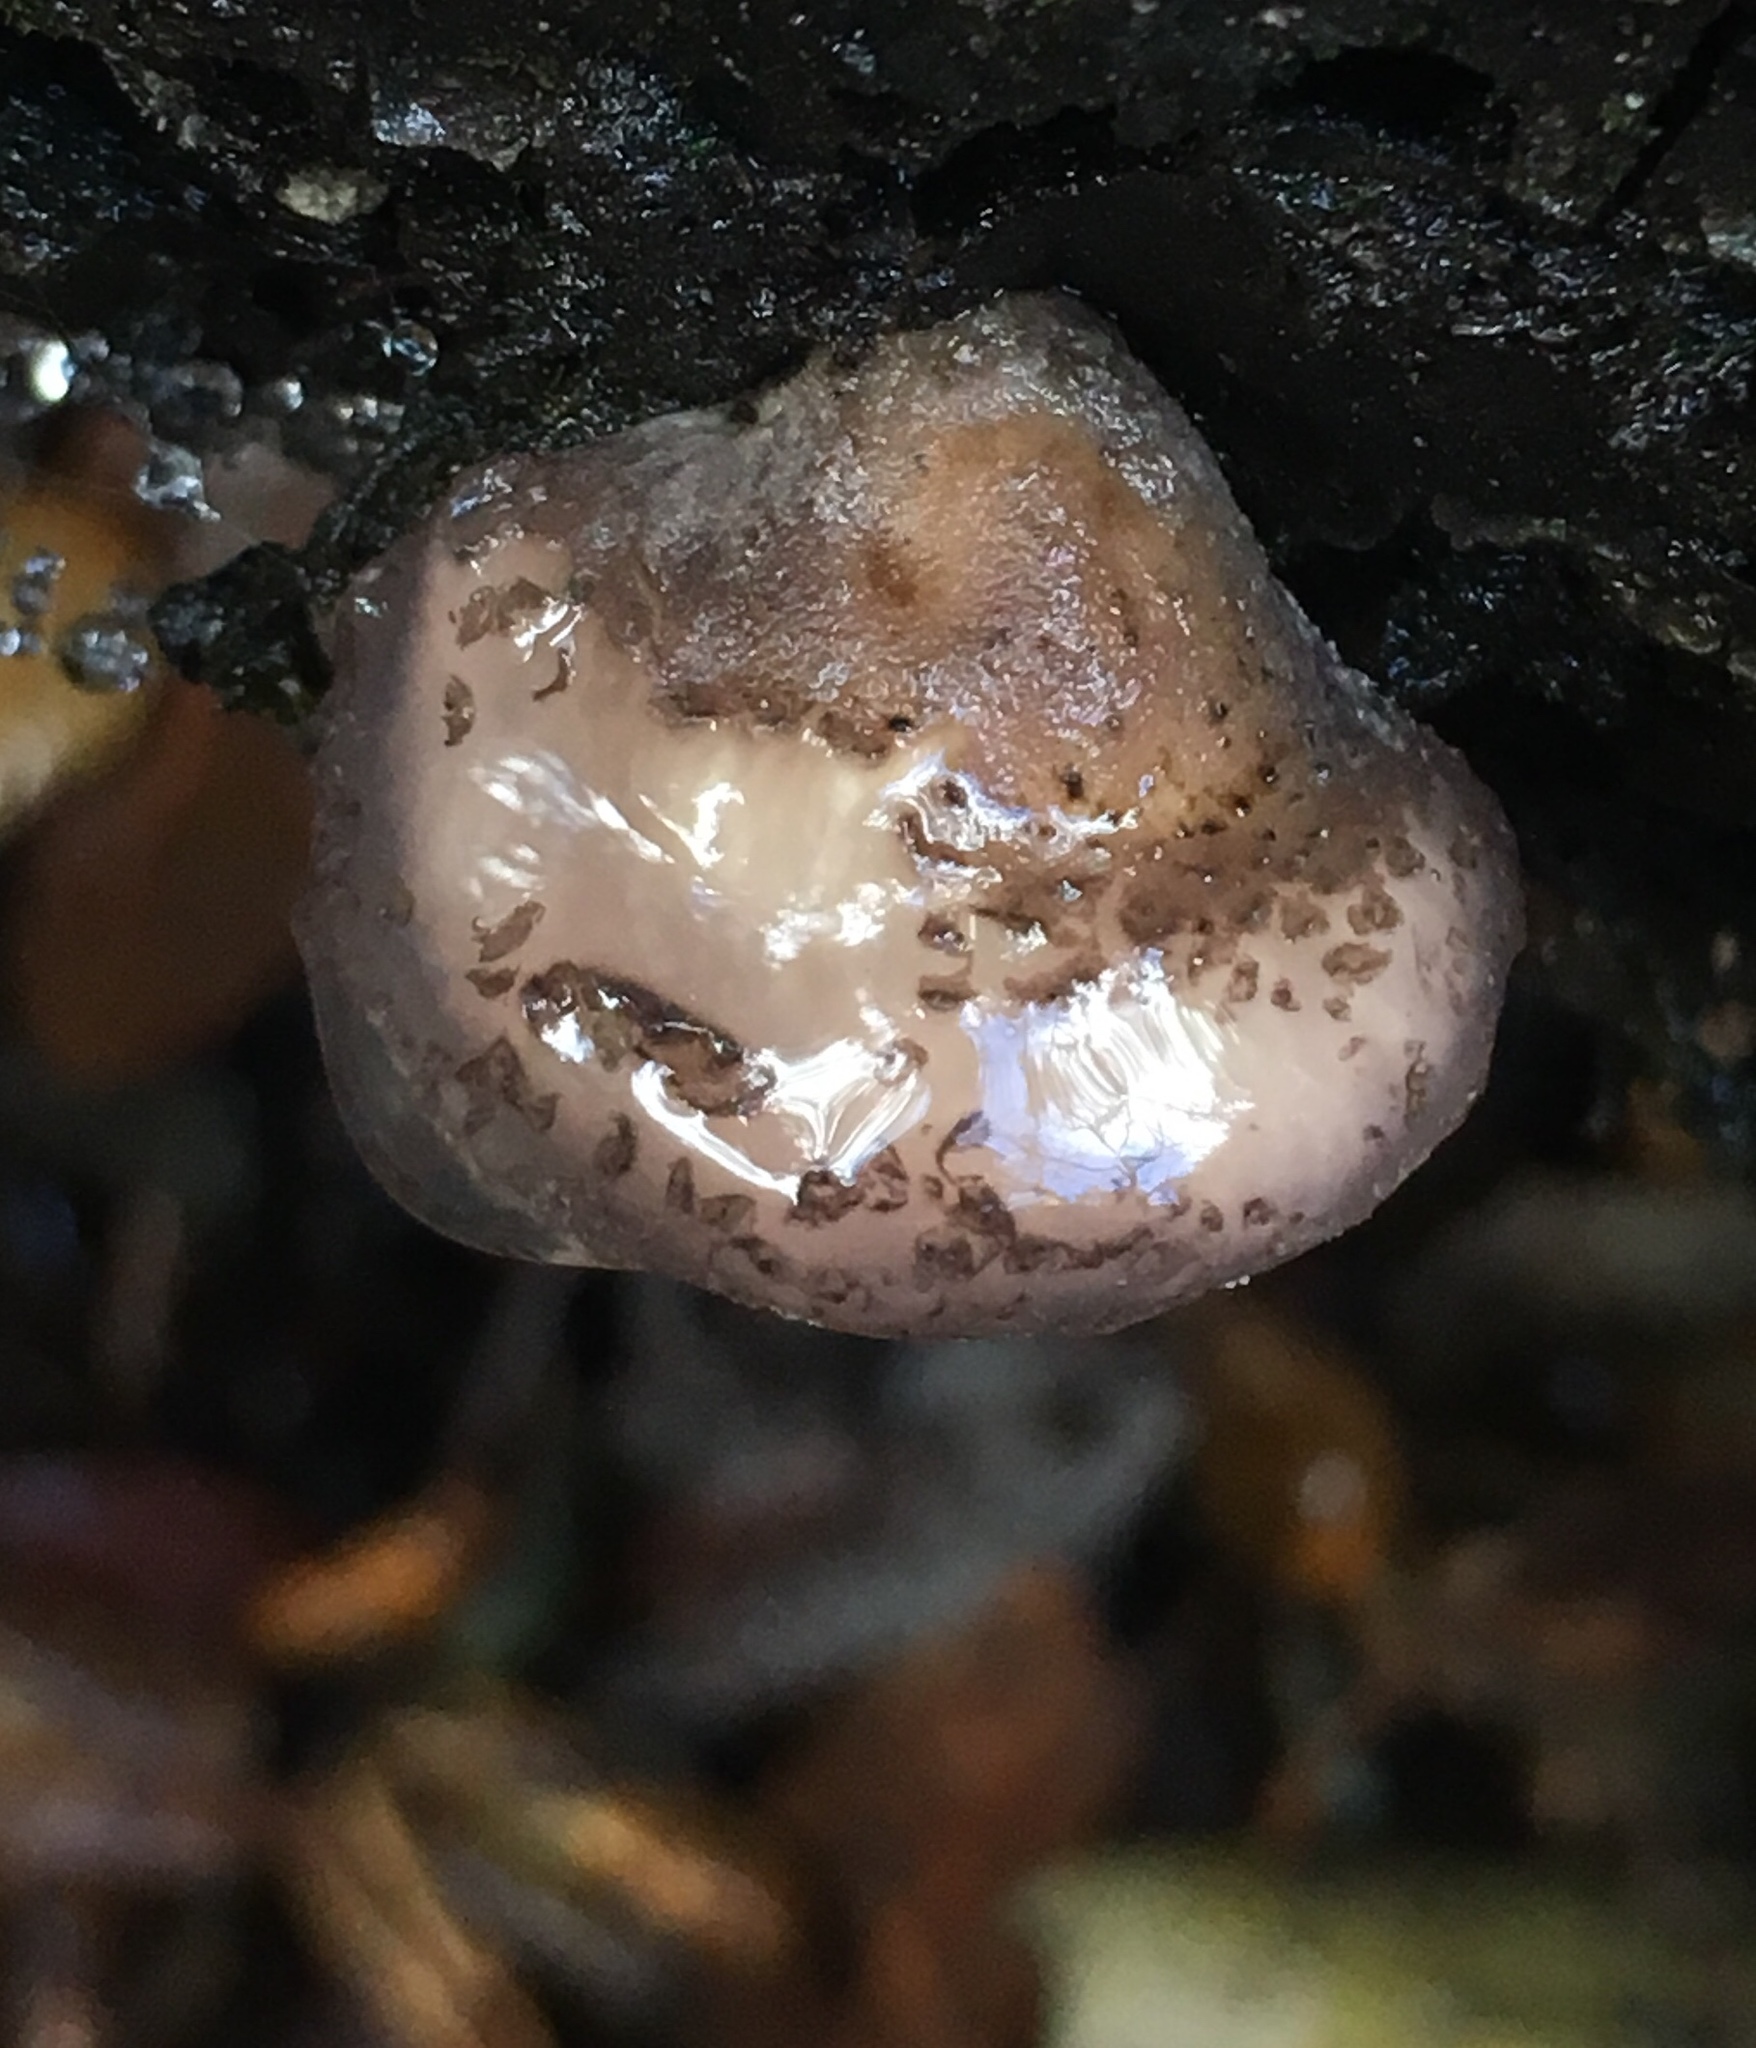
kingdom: Fungi
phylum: Basidiomycota
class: Agaricomycetes
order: Agaricales
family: Pleurotaceae
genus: Hohenbuehelia
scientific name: Hohenbuehelia mastrucata
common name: Woolly oyster
